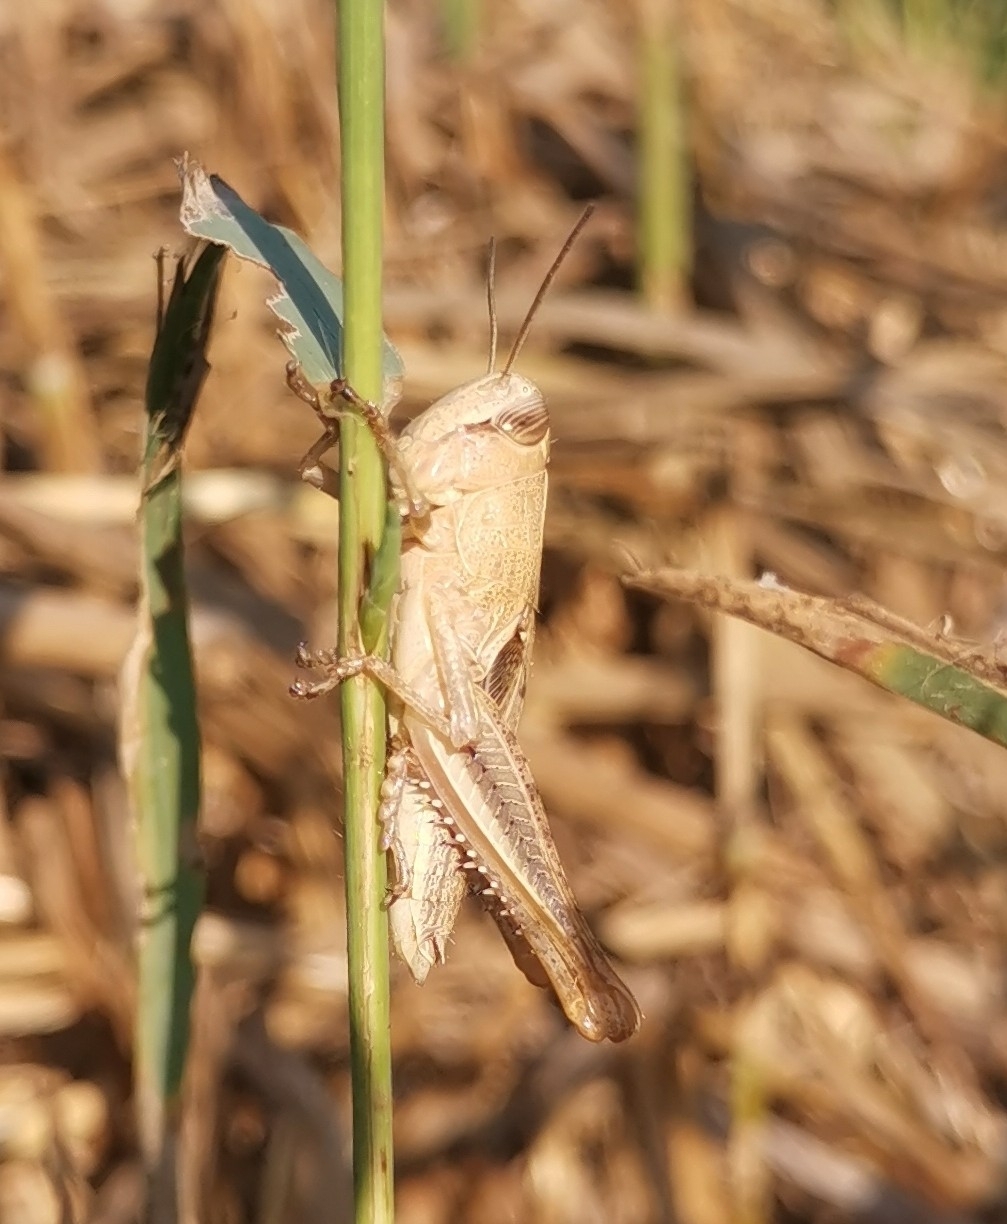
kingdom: Animalia
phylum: Arthropoda
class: Insecta
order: Orthoptera
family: Acrididae
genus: Eyprepocnemis
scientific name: Eyprepocnemis plorans
